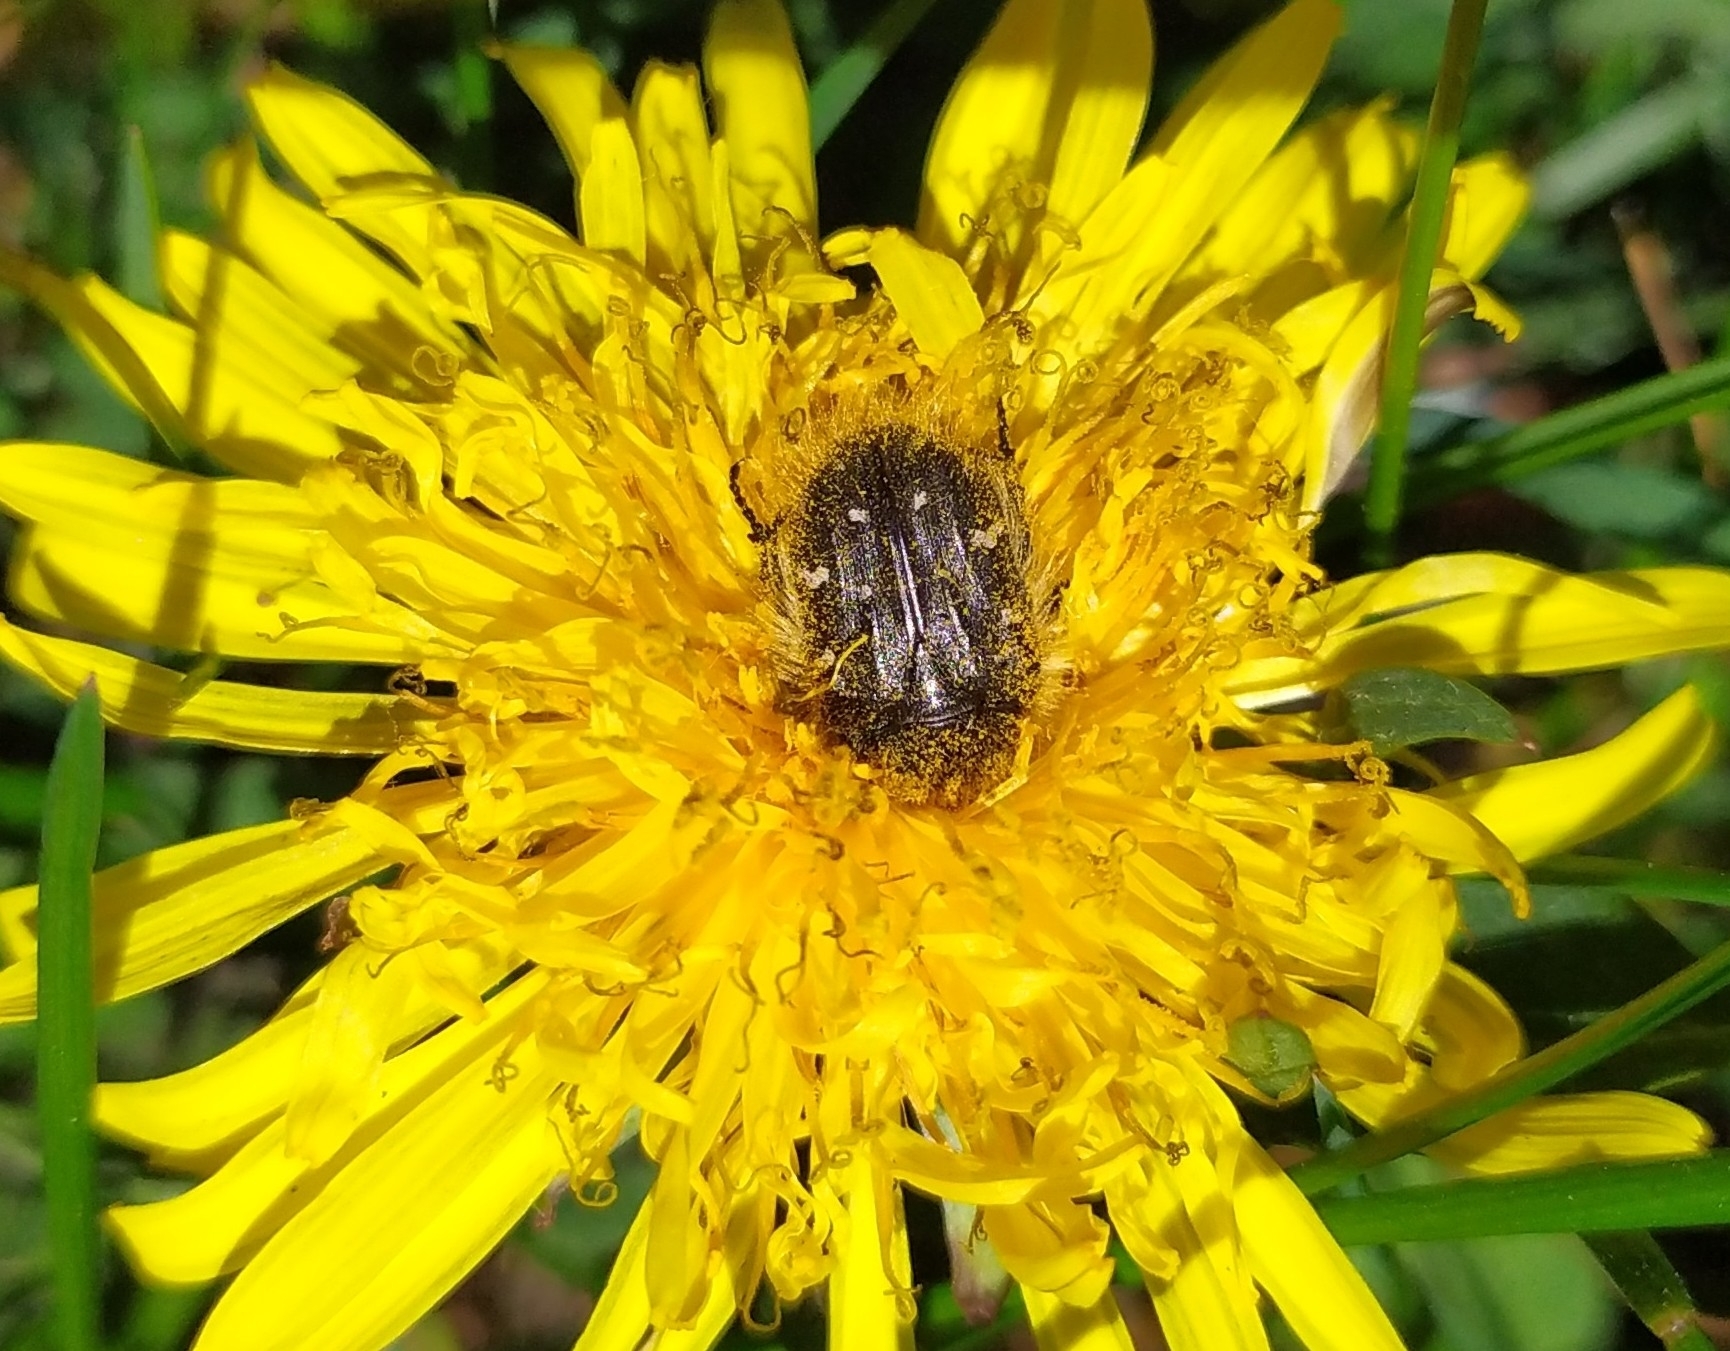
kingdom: Animalia
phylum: Arthropoda
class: Insecta
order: Coleoptera
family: Scarabaeidae
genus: Tropinota
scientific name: Tropinota hirta
